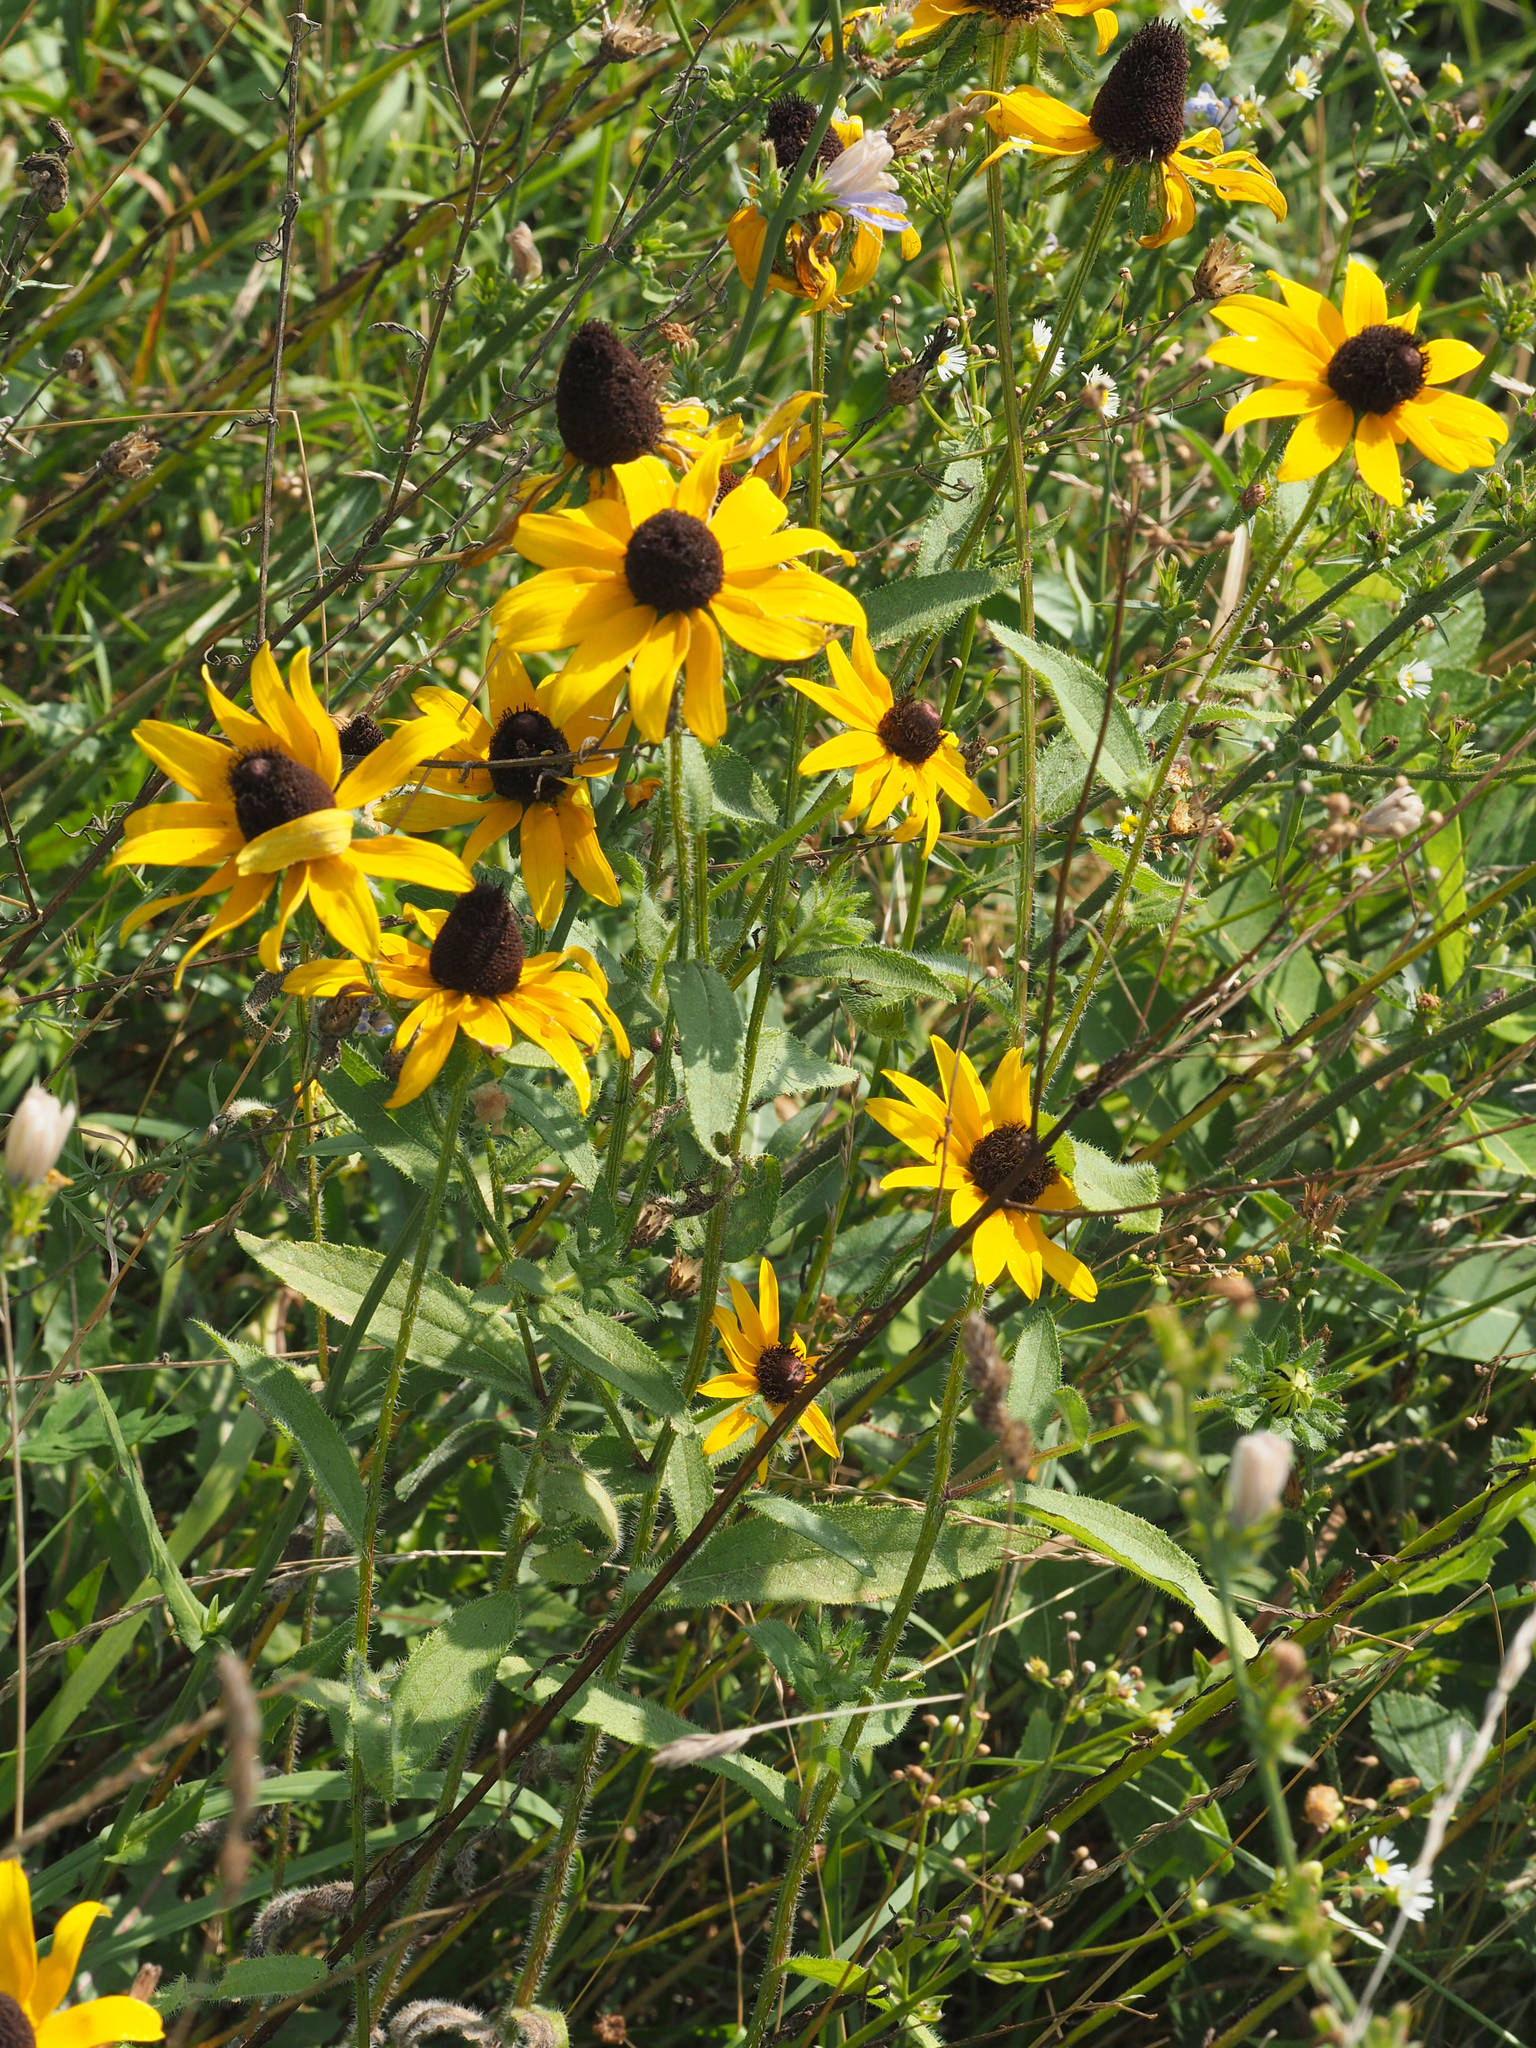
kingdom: Plantae
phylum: Tracheophyta
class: Magnoliopsida
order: Asterales
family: Asteraceae
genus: Rudbeckia
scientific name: Rudbeckia hirta
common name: Black-eyed-susan
